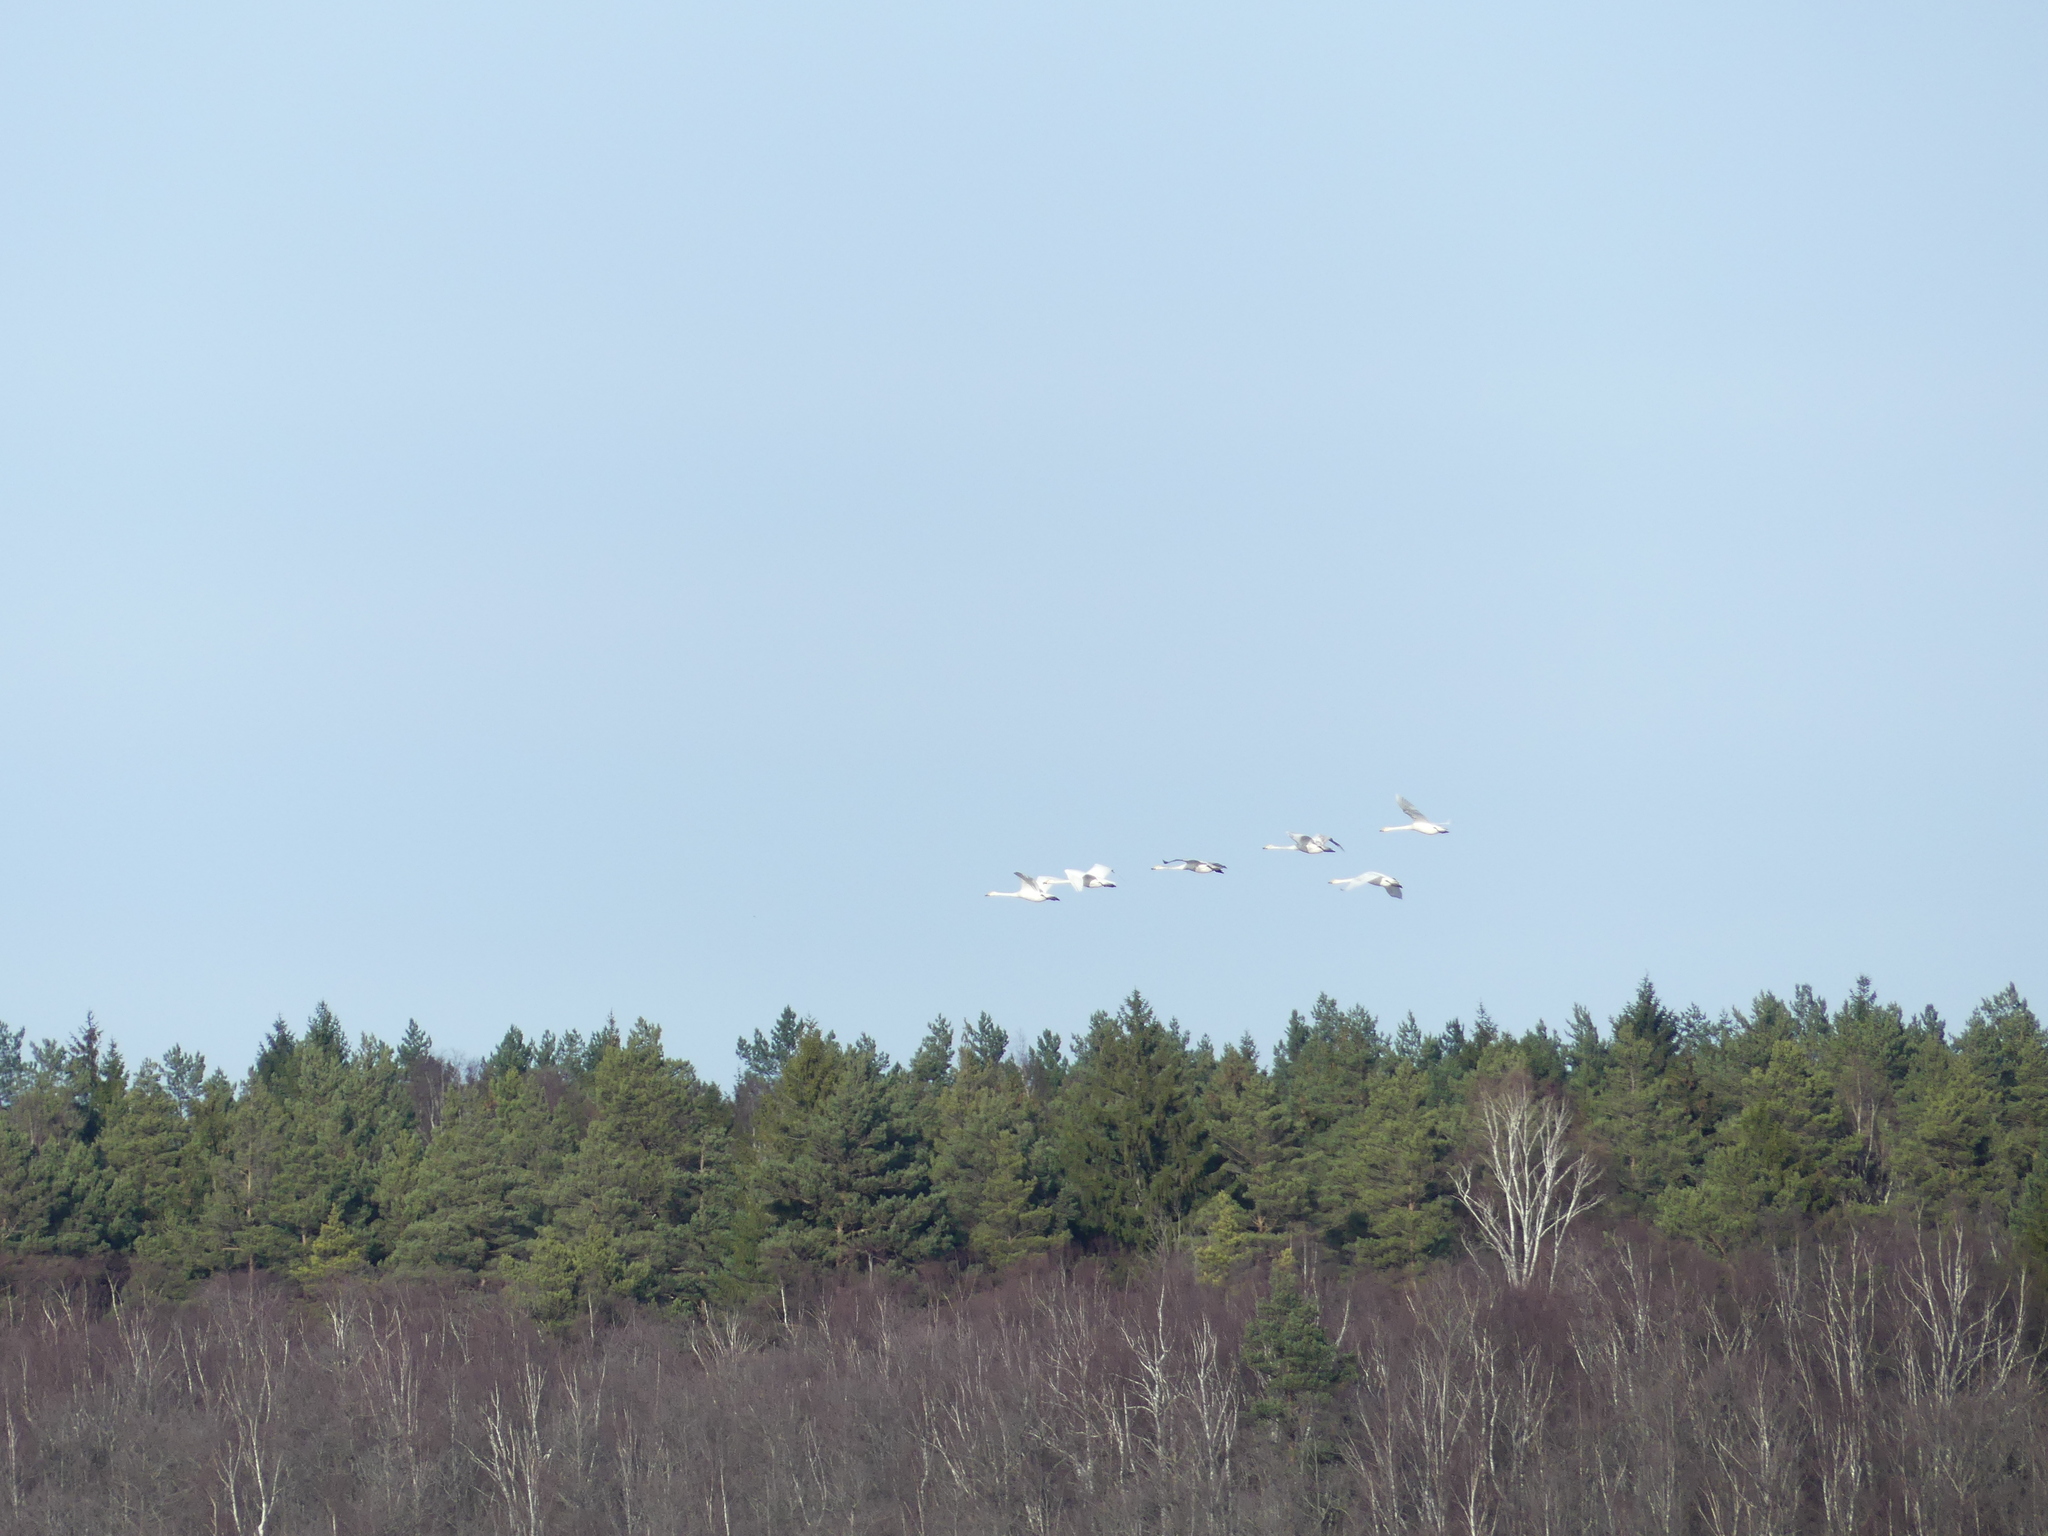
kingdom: Animalia
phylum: Chordata
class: Aves
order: Anseriformes
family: Anatidae
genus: Cygnus
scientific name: Cygnus cygnus
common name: Whooper swan
